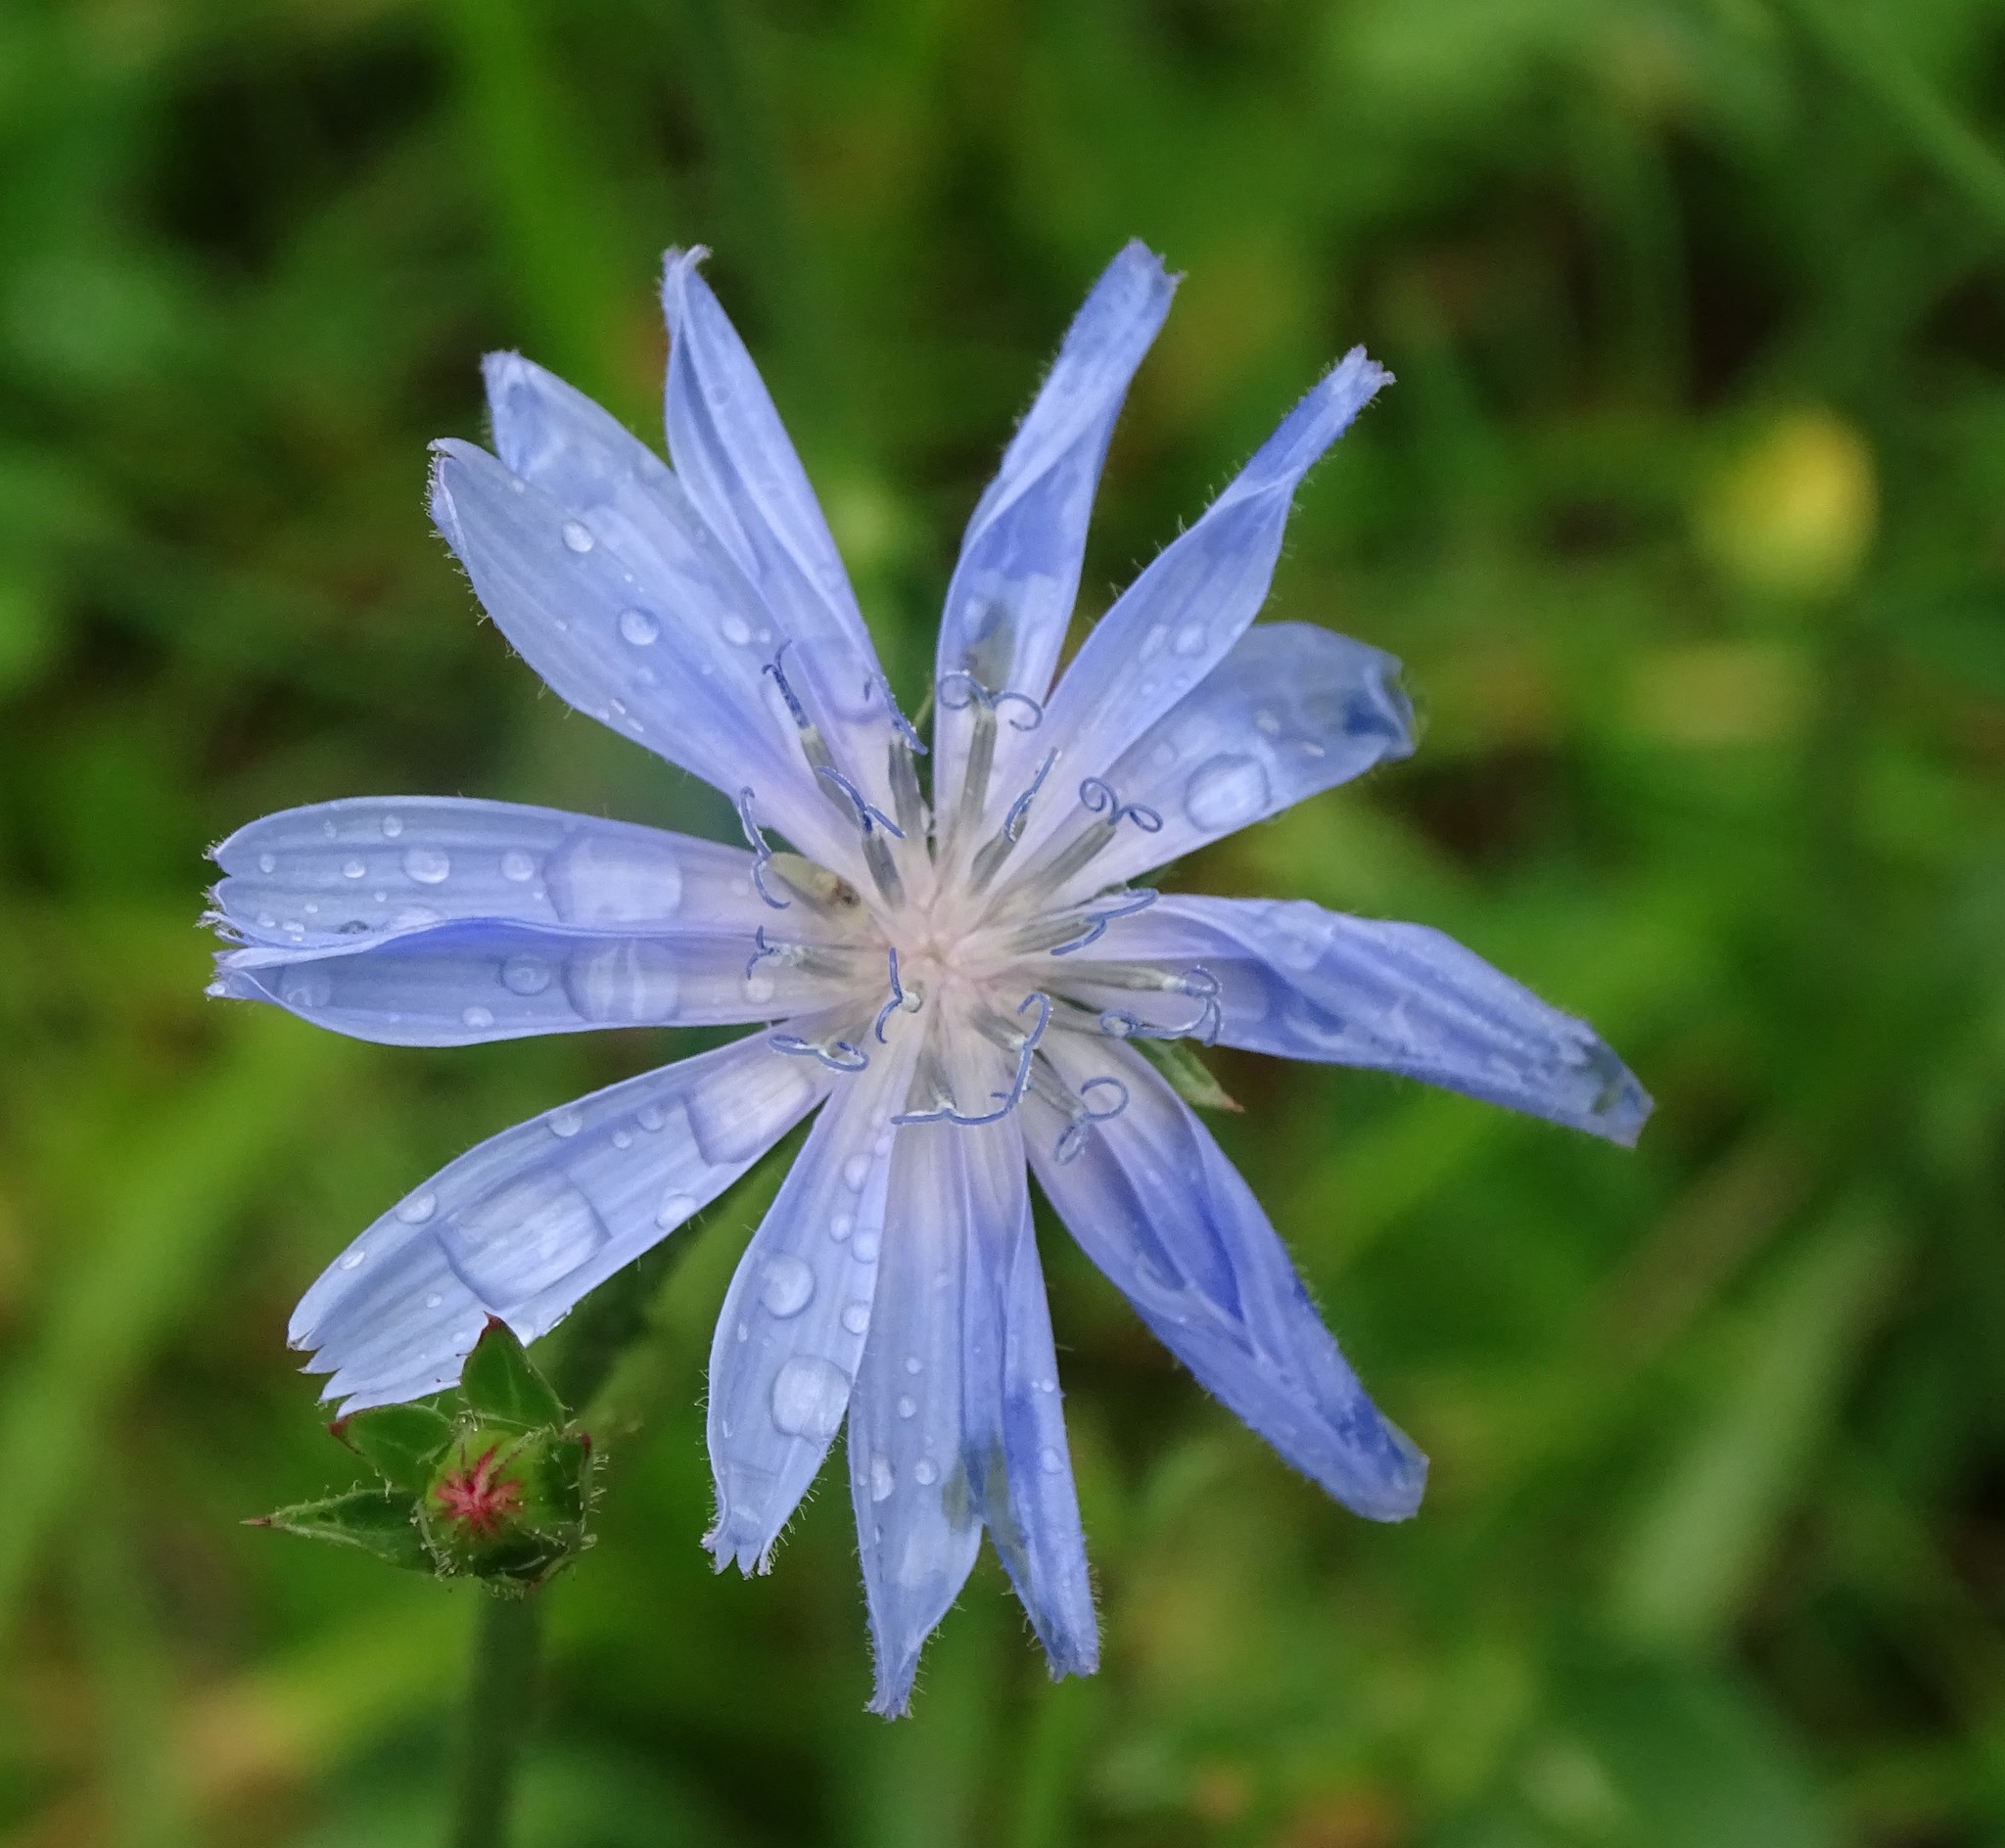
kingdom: Plantae
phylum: Tracheophyta
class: Magnoliopsida
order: Asterales
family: Asteraceae
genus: Cichorium
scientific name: Cichorium intybus
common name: Chicory
